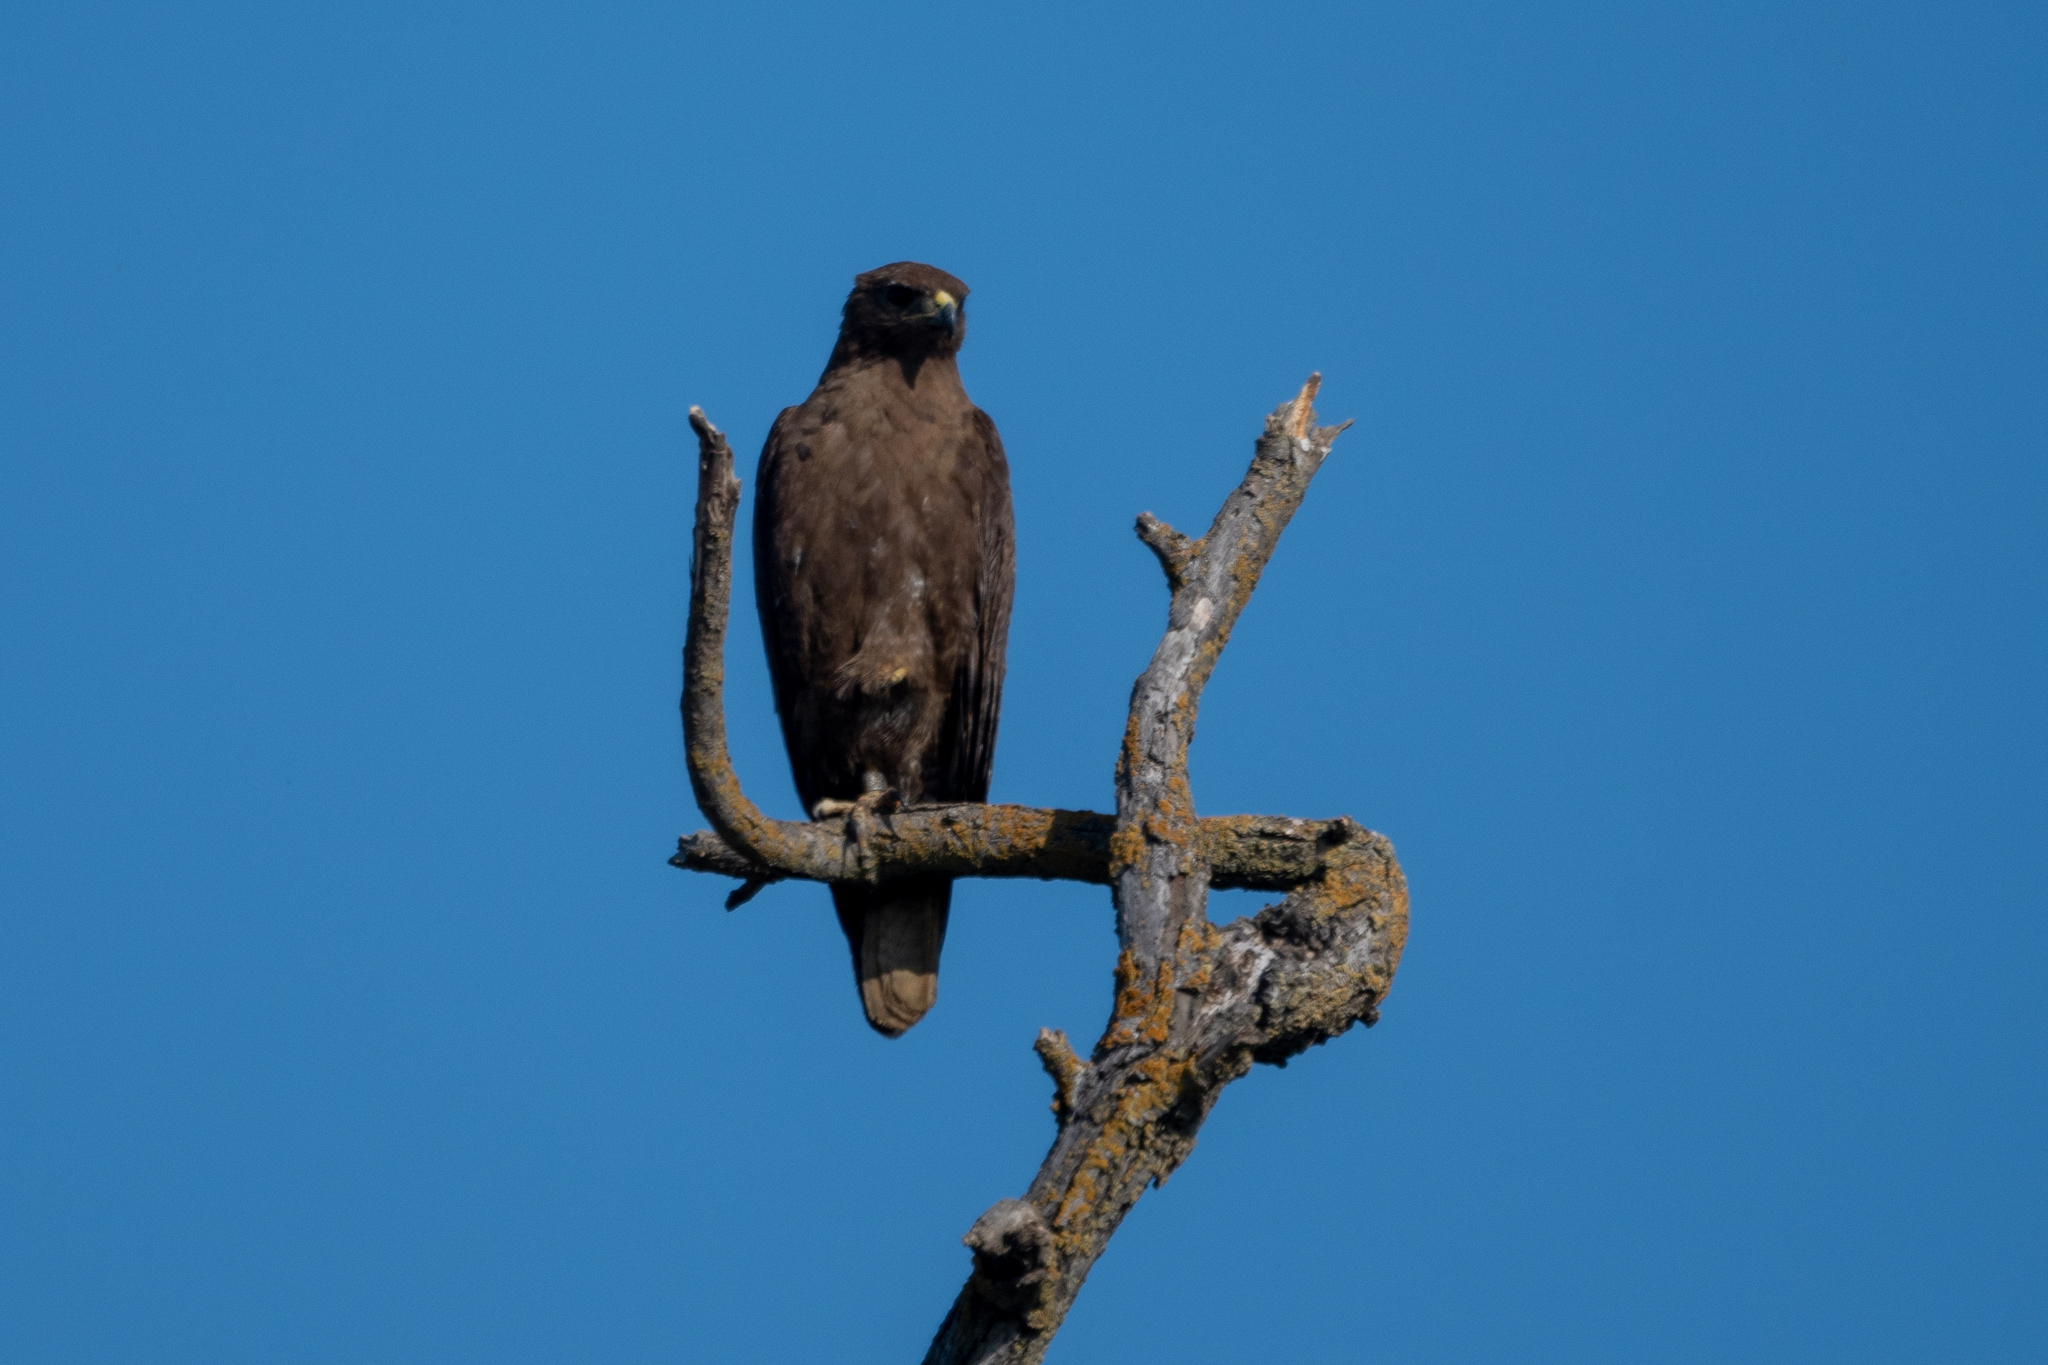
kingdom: Animalia
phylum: Chordata
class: Aves
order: Accipitriformes
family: Accipitridae
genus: Buteo
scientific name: Buteo jamaicensis
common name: Red-tailed hawk
